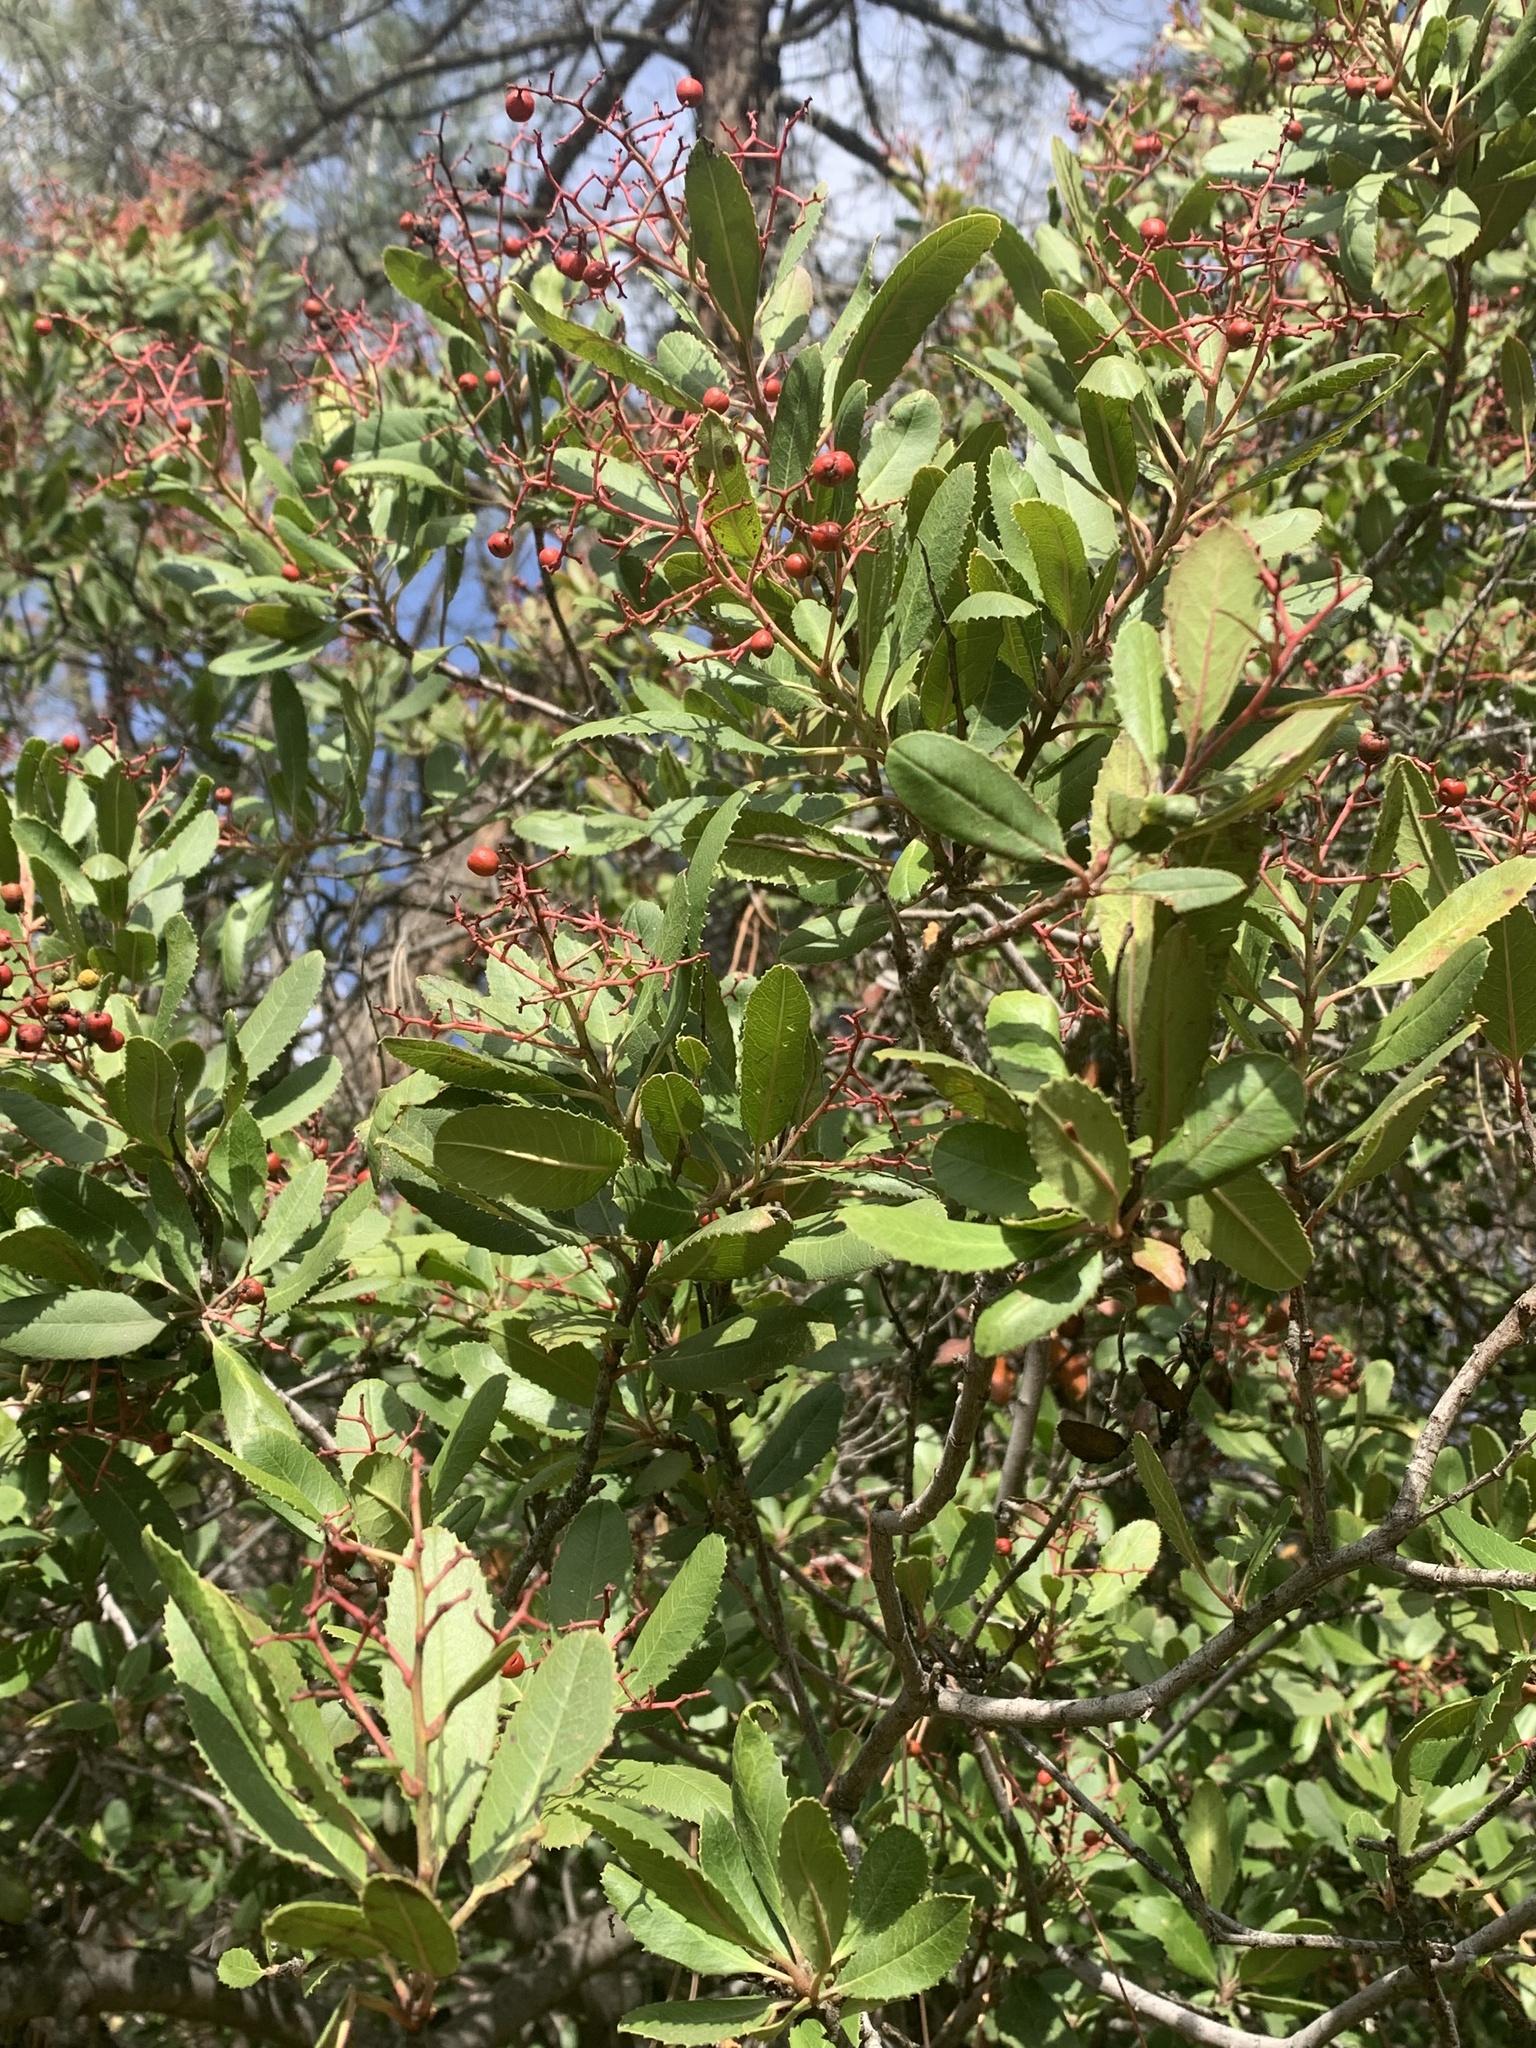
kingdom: Plantae
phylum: Tracheophyta
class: Magnoliopsida
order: Rosales
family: Rosaceae
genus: Heteromeles
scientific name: Heteromeles arbutifolia
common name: California-holly
